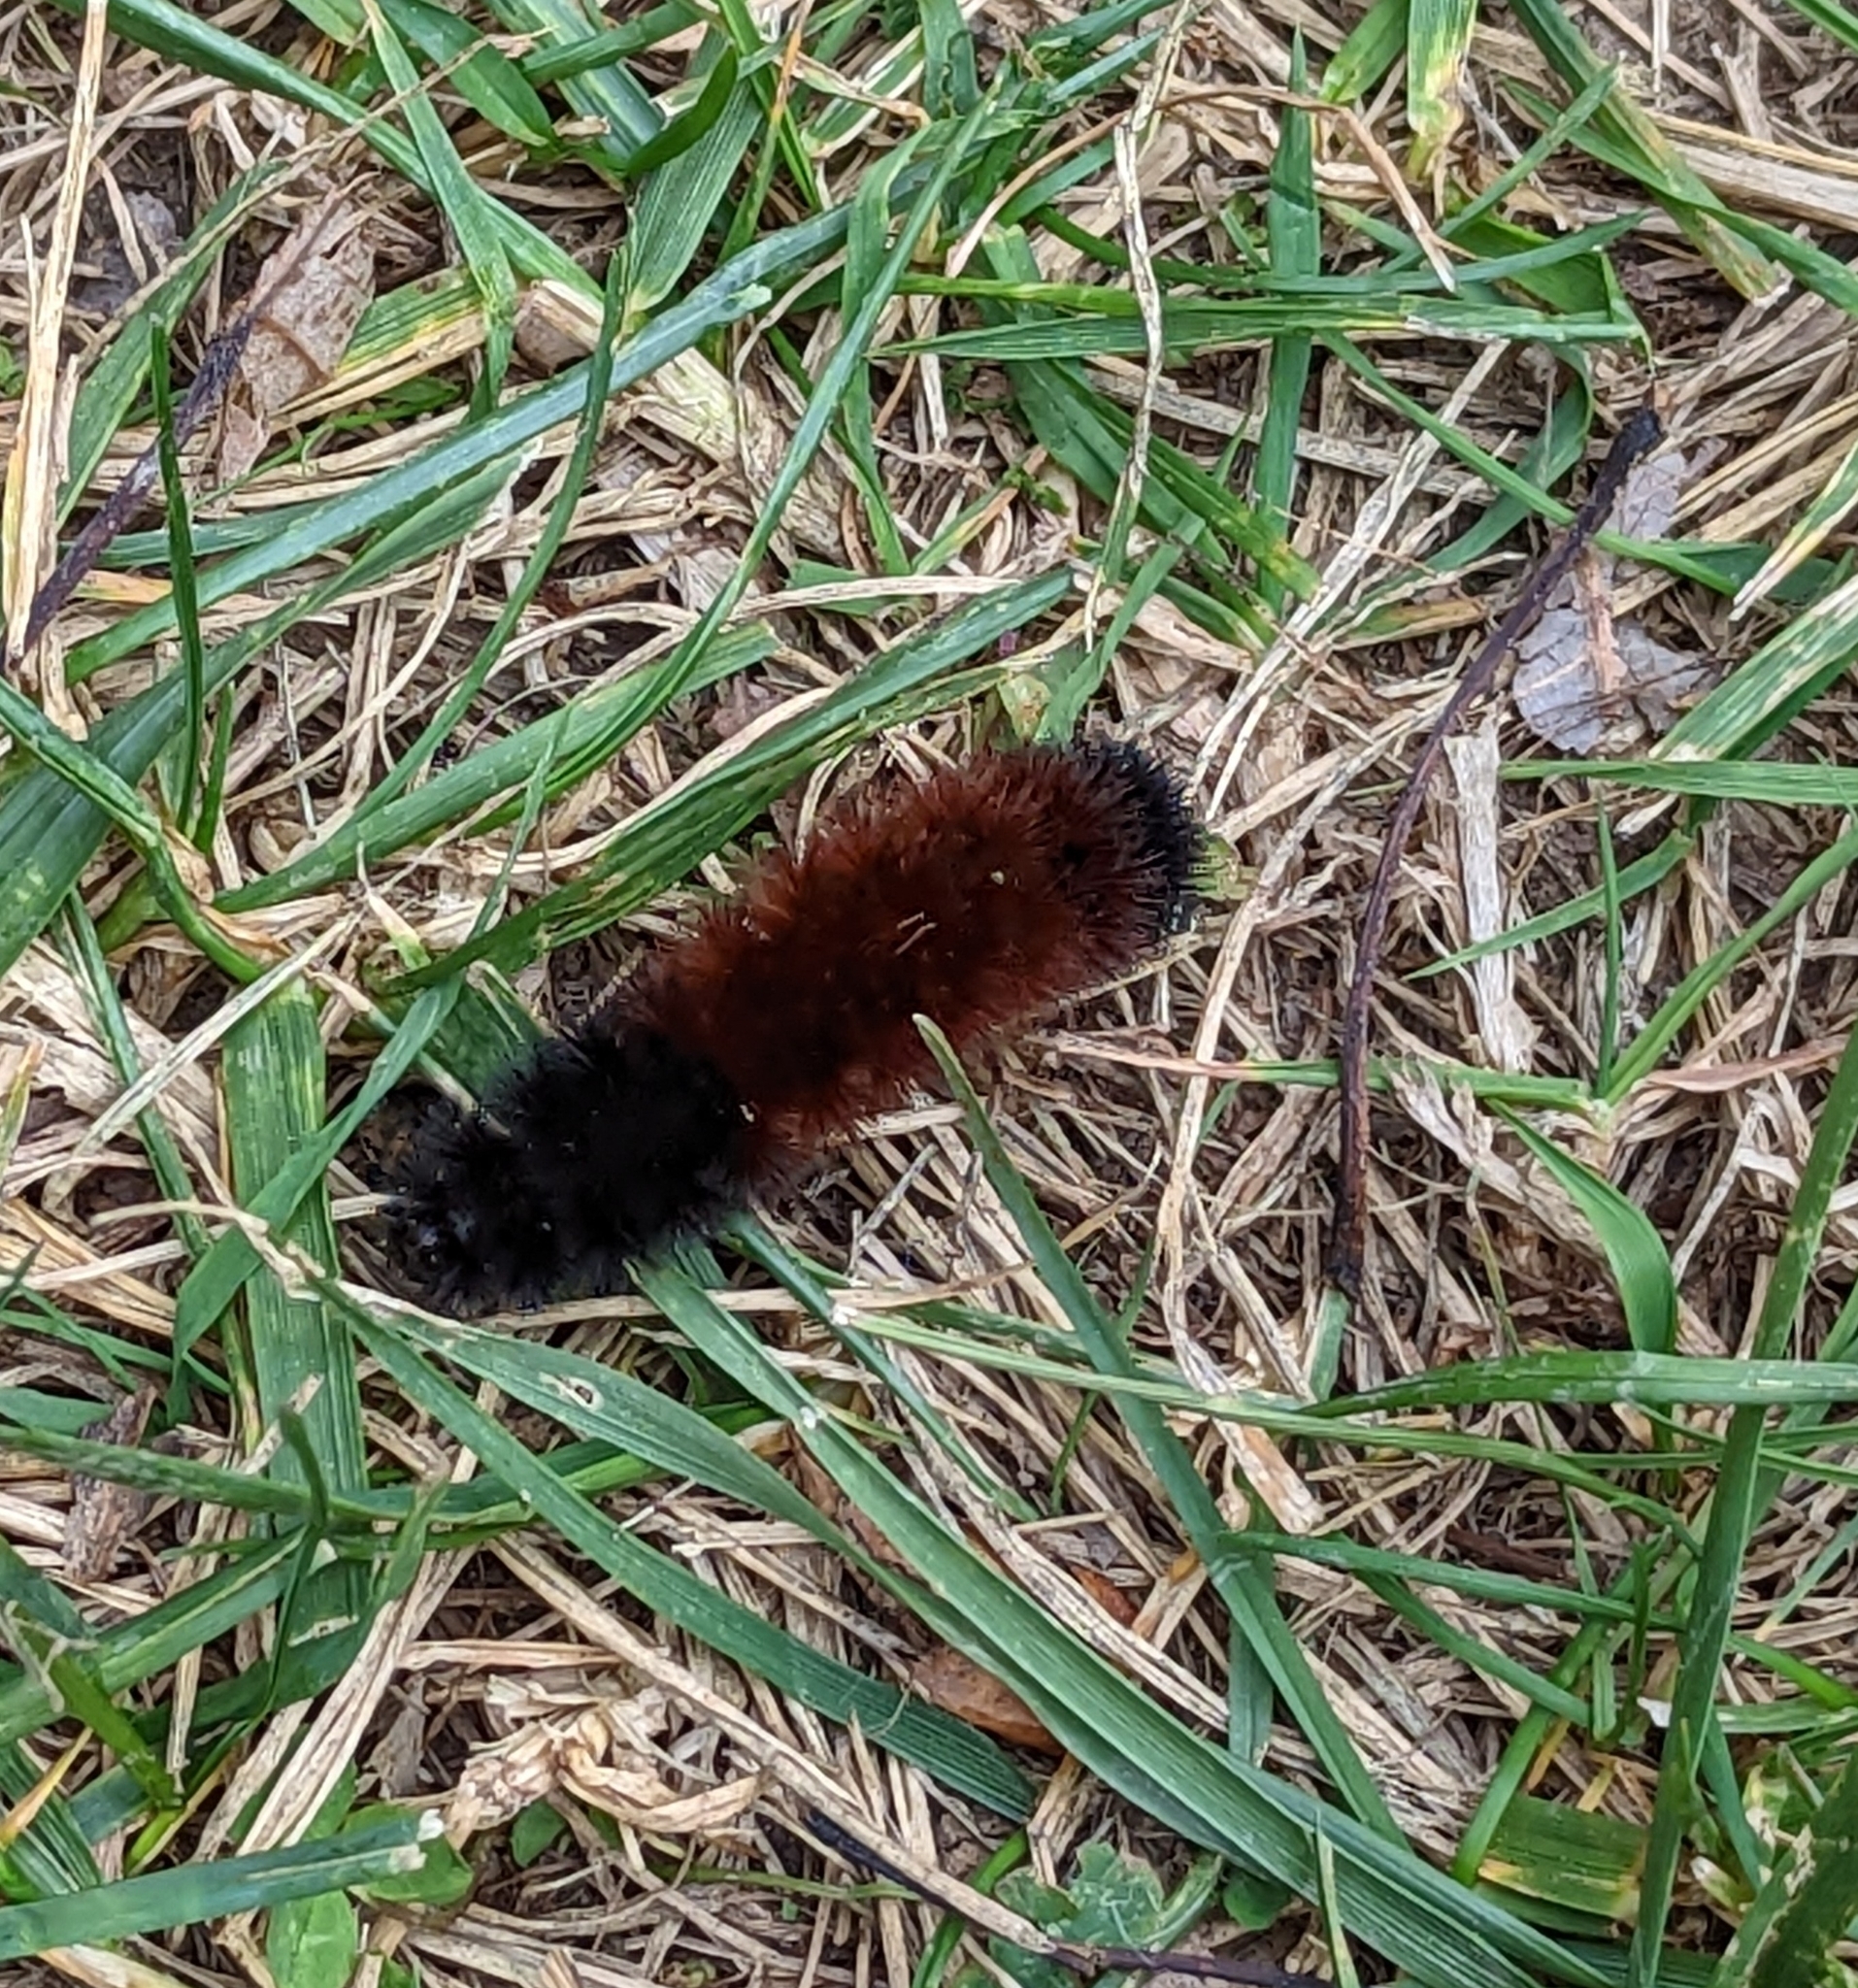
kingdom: Animalia
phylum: Arthropoda
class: Insecta
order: Lepidoptera
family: Erebidae
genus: Pyrrharctia
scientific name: Pyrrharctia isabella
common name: Isabella tiger moth
